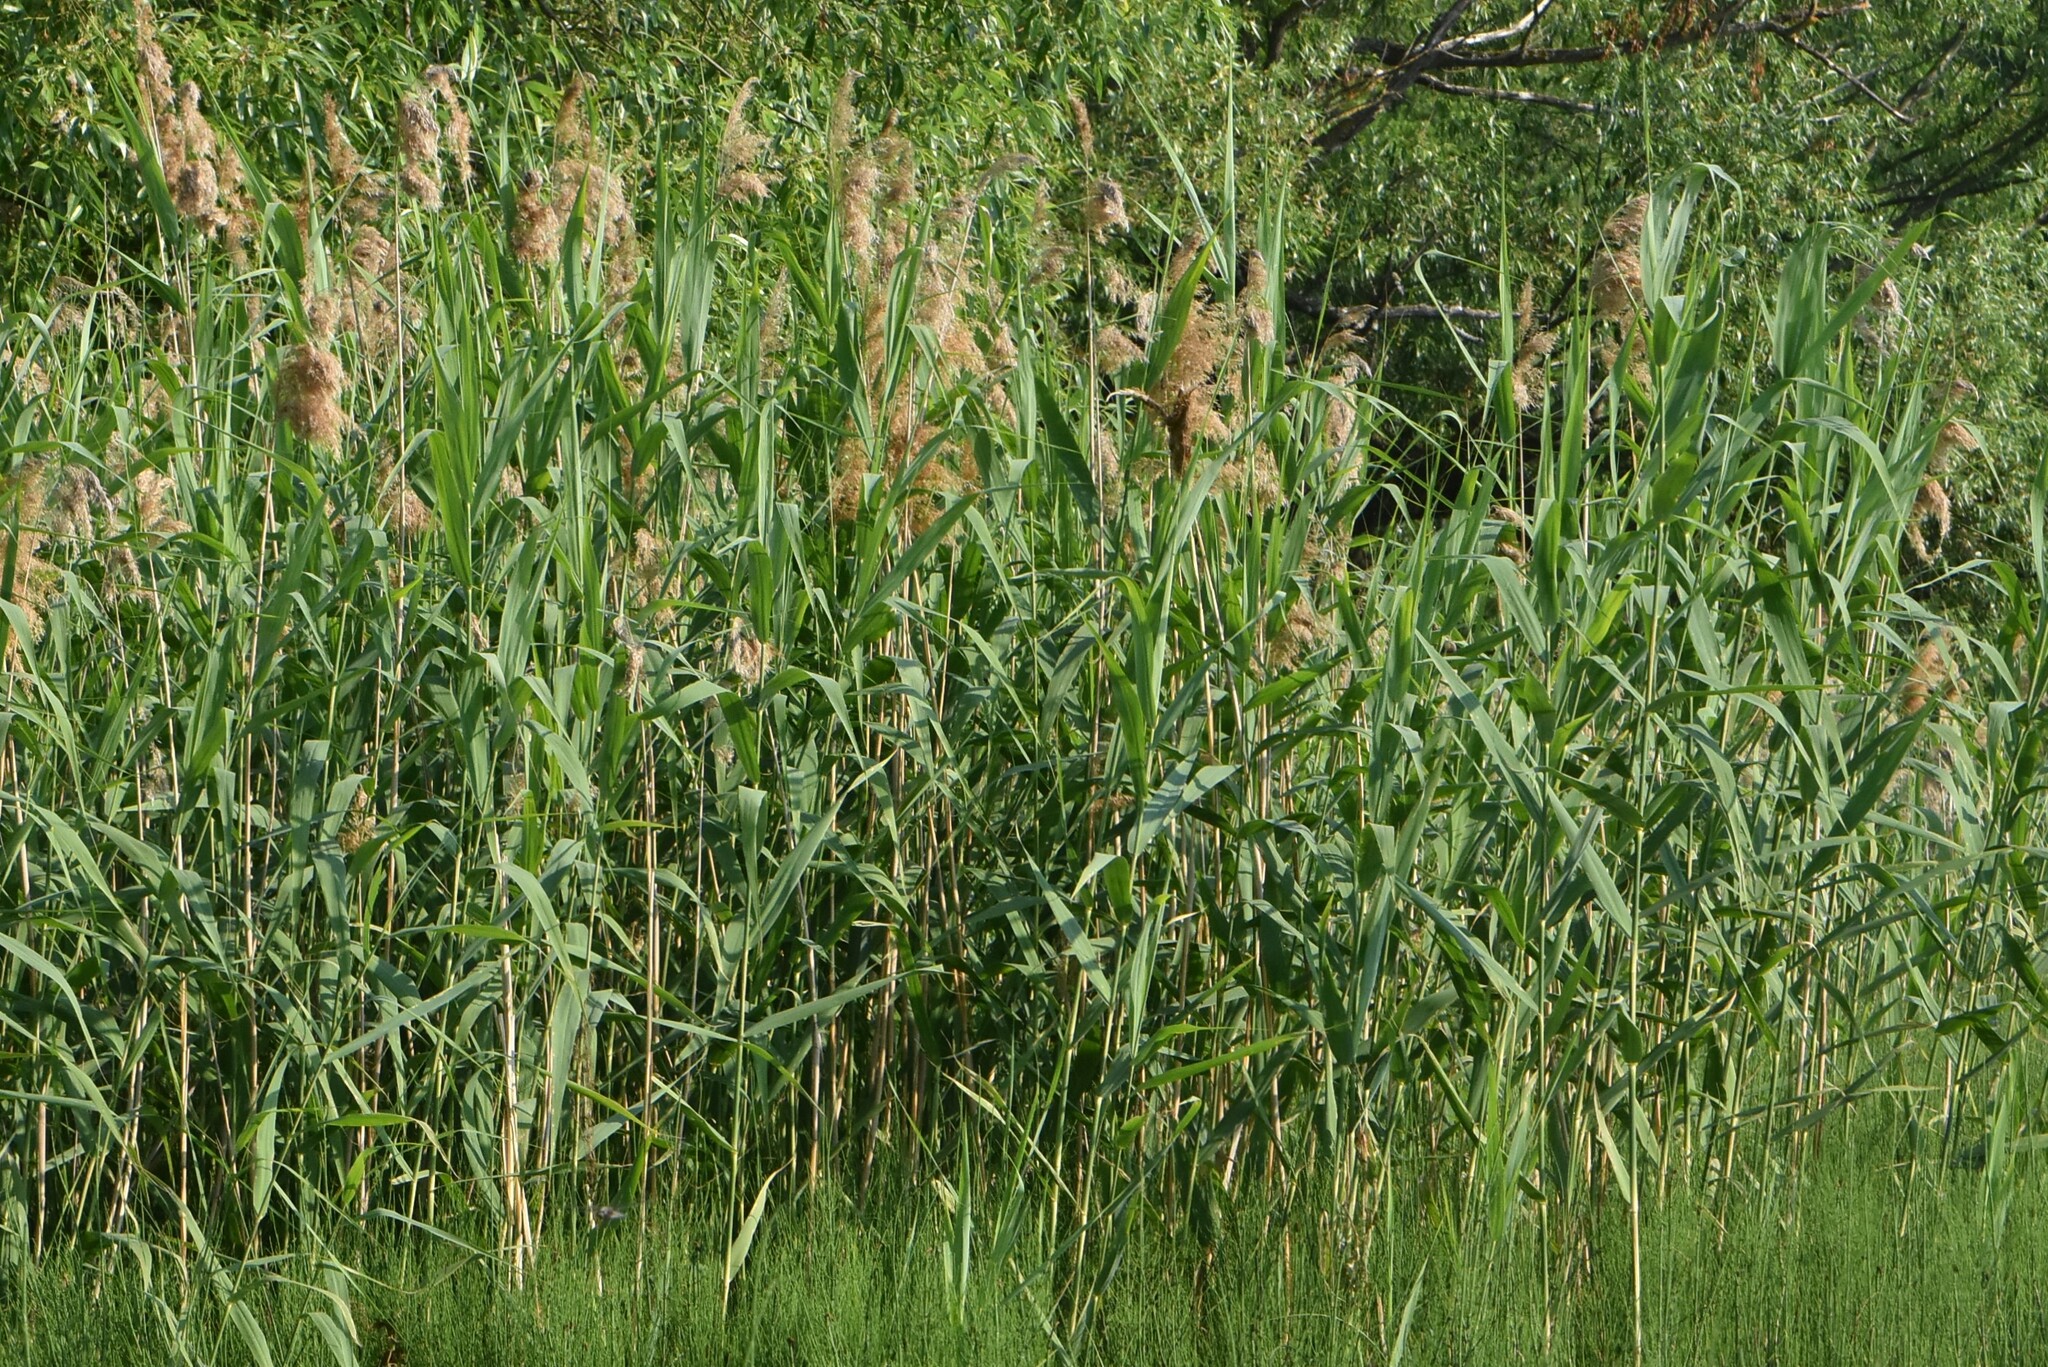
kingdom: Plantae
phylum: Tracheophyta
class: Liliopsida
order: Poales
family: Poaceae
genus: Phragmites
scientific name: Phragmites australis
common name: Common reed
